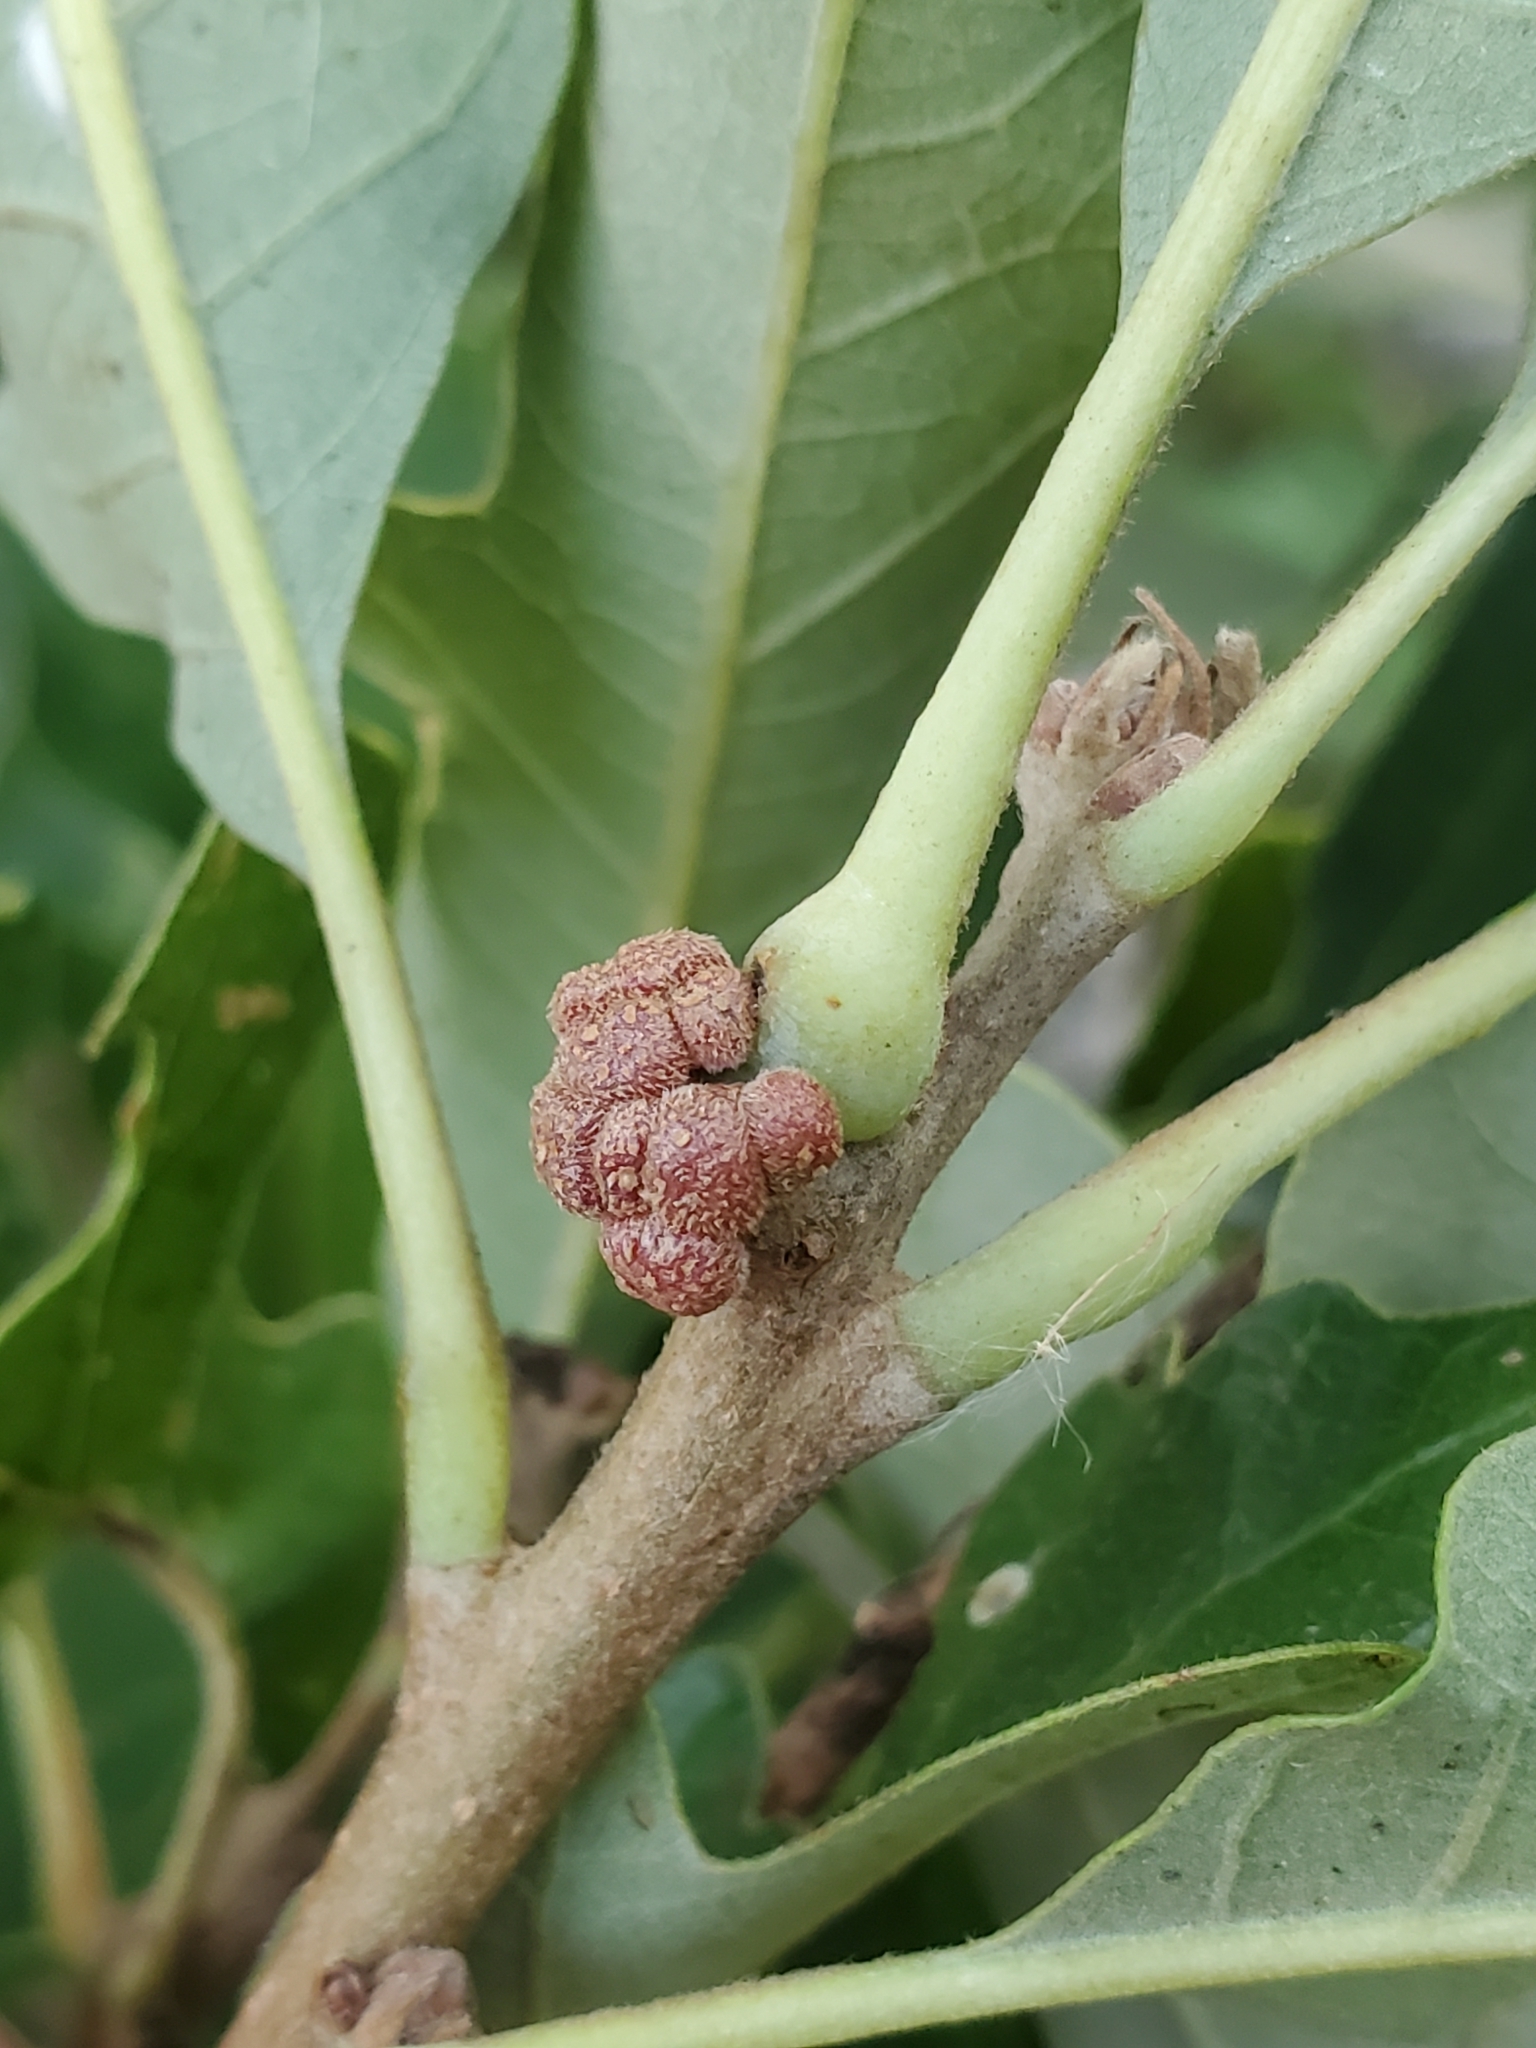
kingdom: Animalia
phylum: Arthropoda
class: Insecta
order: Hymenoptera
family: Cynipidae
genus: Andricus
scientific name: Andricus
